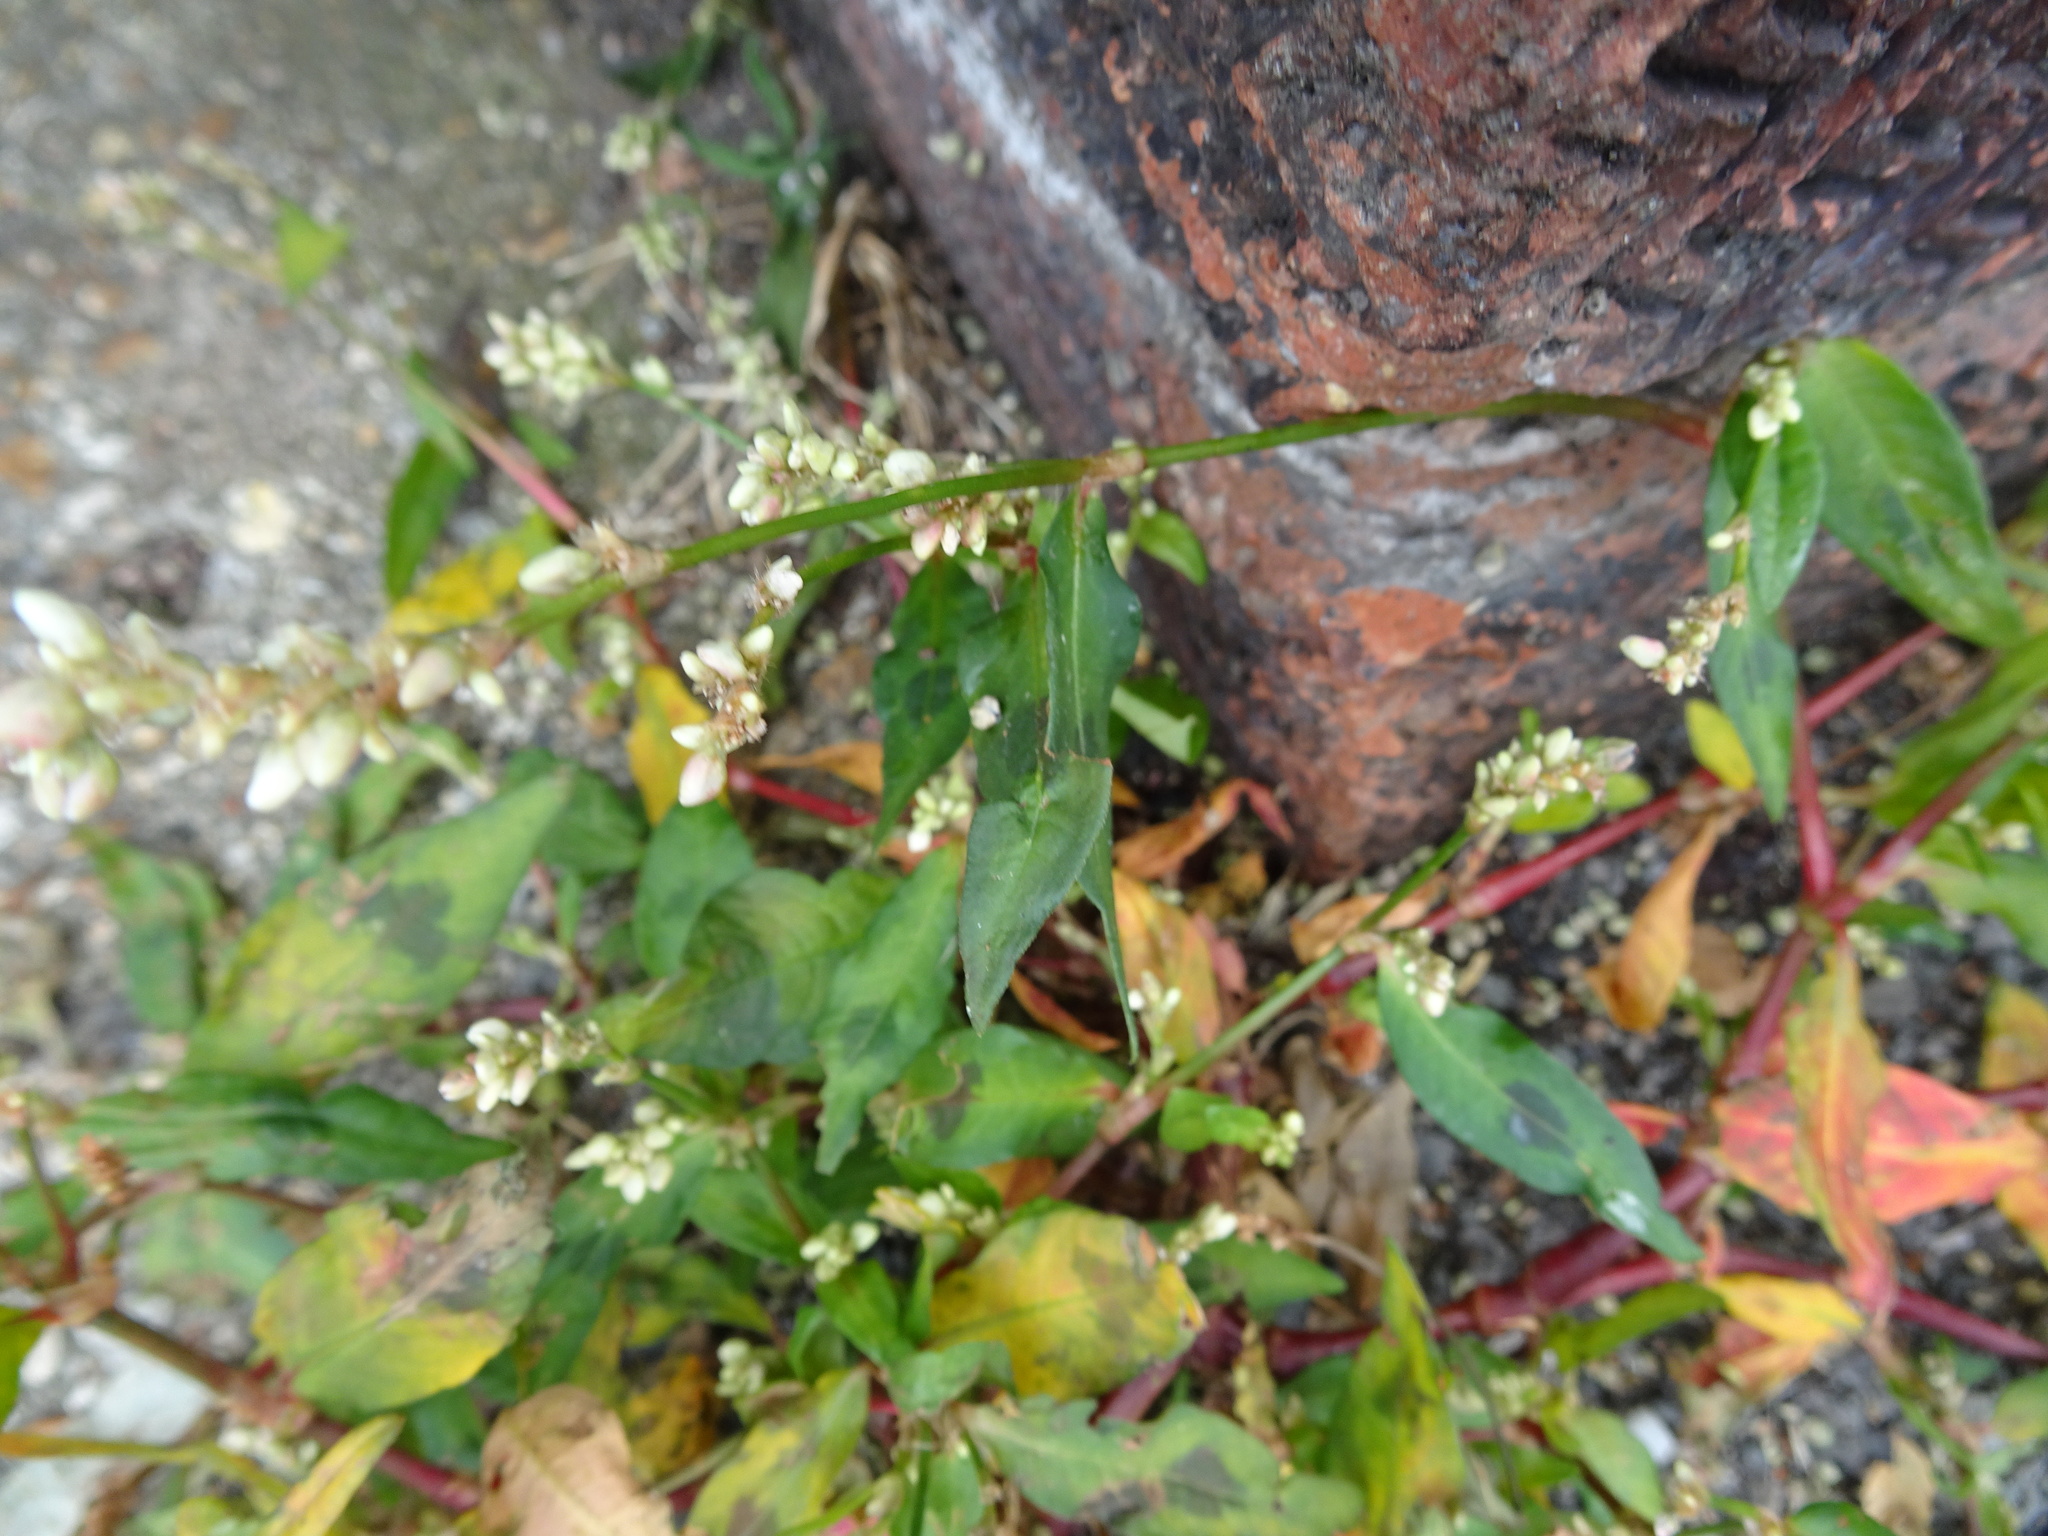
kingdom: Plantae
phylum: Tracheophyta
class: Magnoliopsida
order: Caryophyllales
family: Polygonaceae
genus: Persicaria
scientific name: Persicaria maculosa
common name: Redshank
